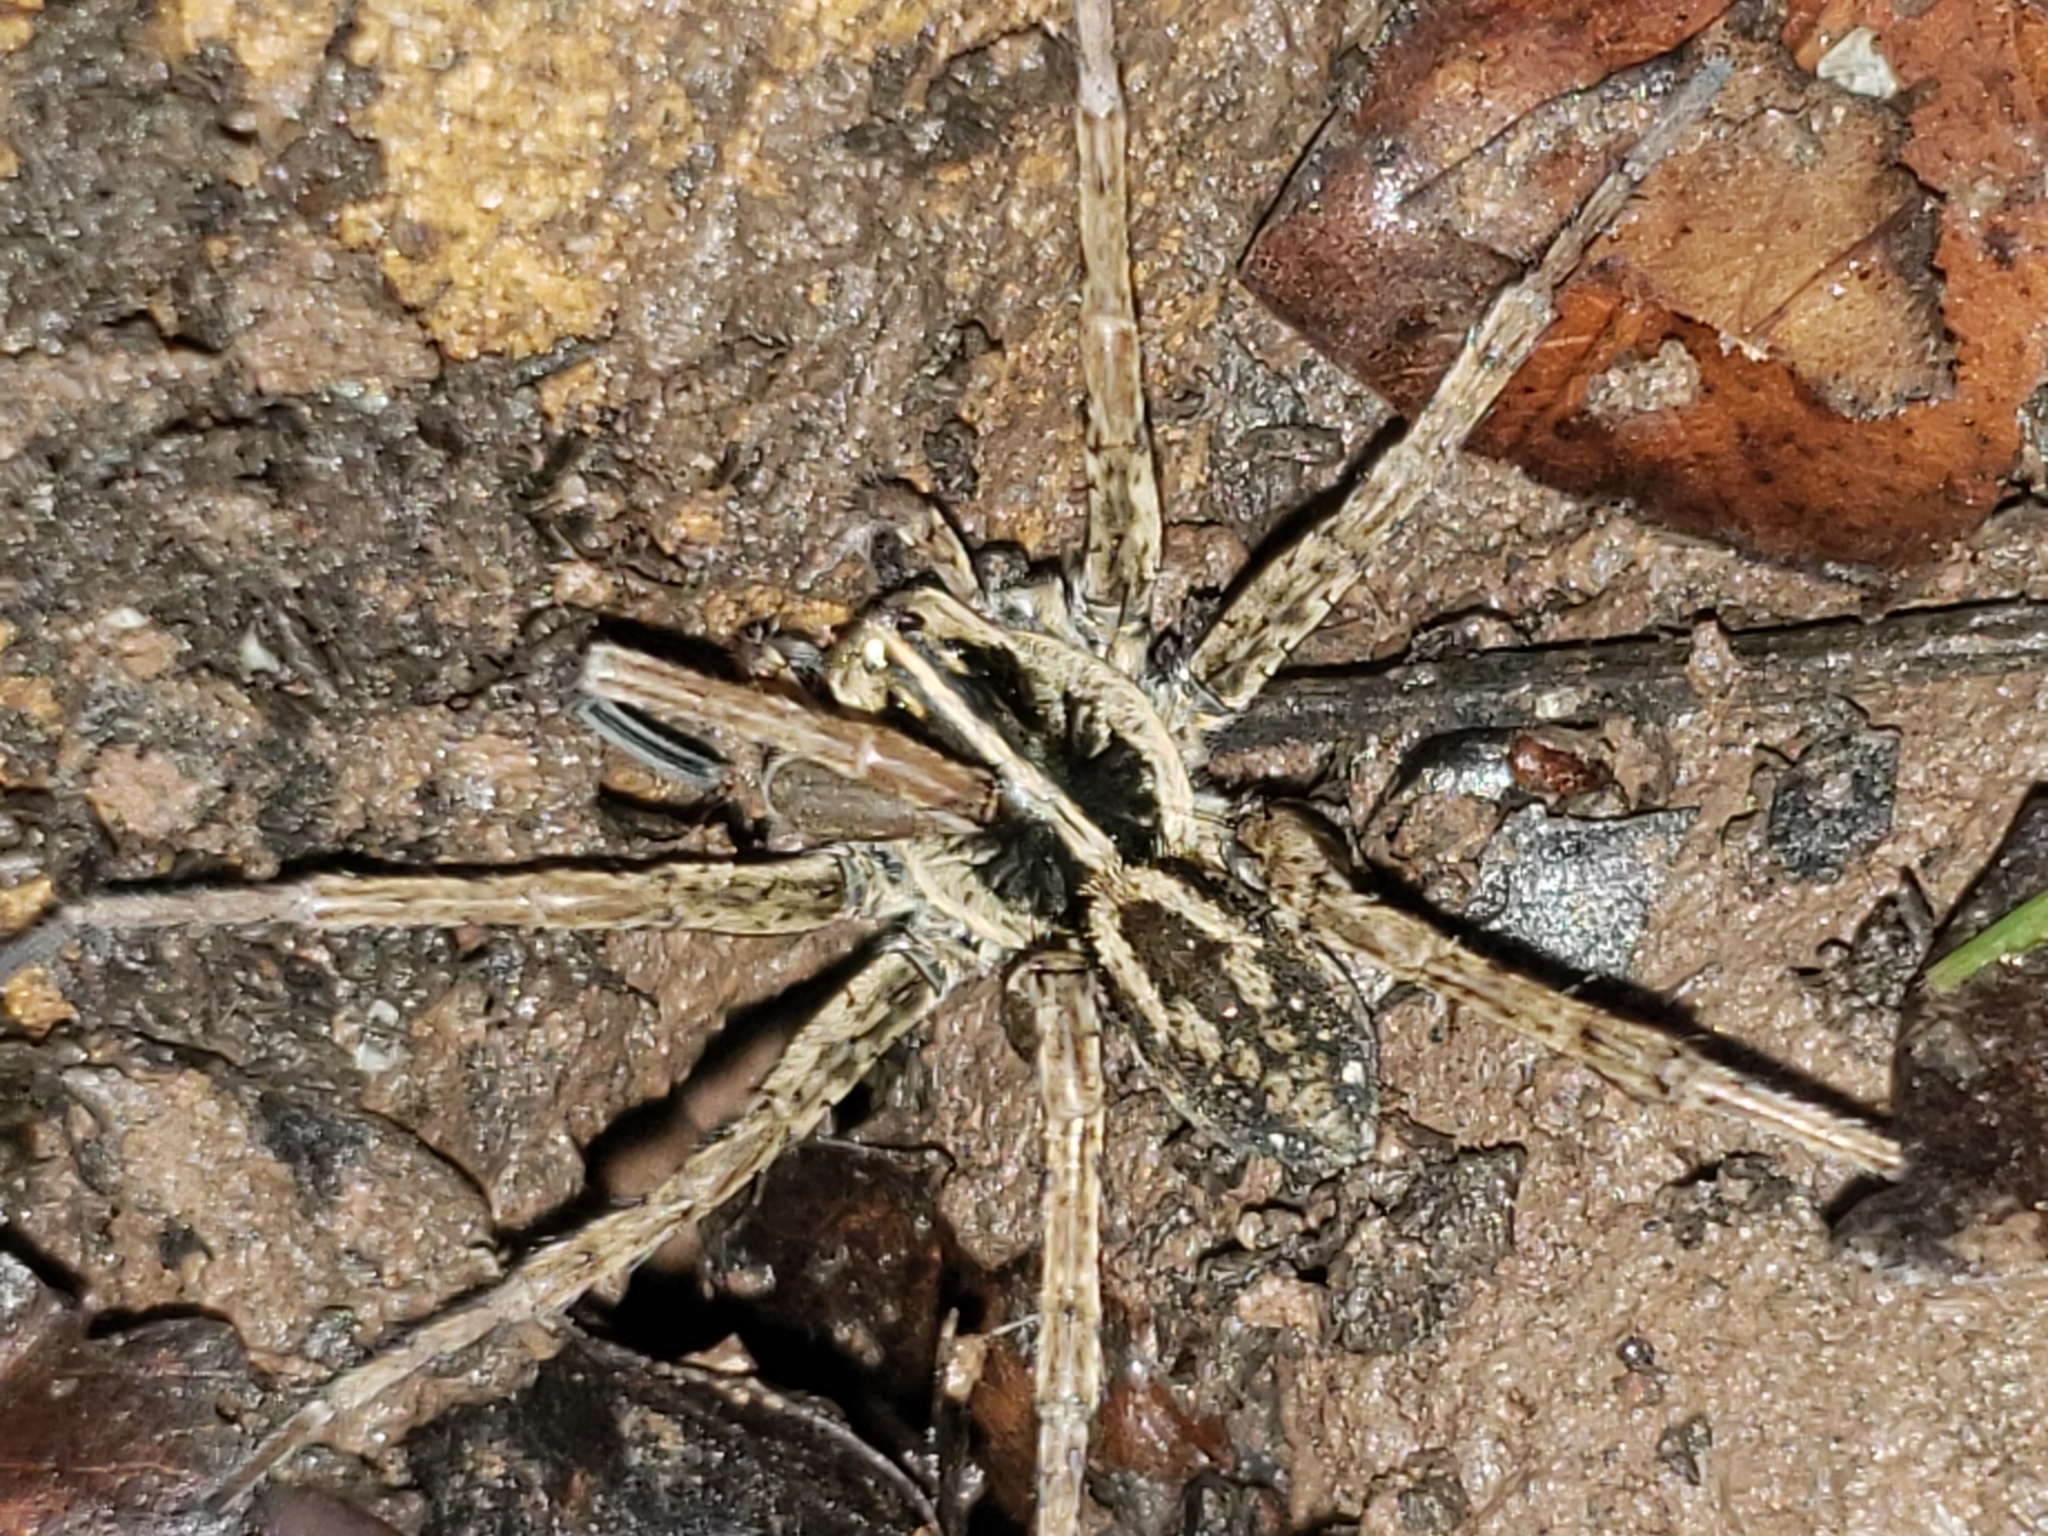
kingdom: Animalia
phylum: Arthropoda
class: Arachnida
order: Araneae
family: Lycosidae
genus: Tigrosa
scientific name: Tigrosa helluo
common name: Wetland giant wolf spider
